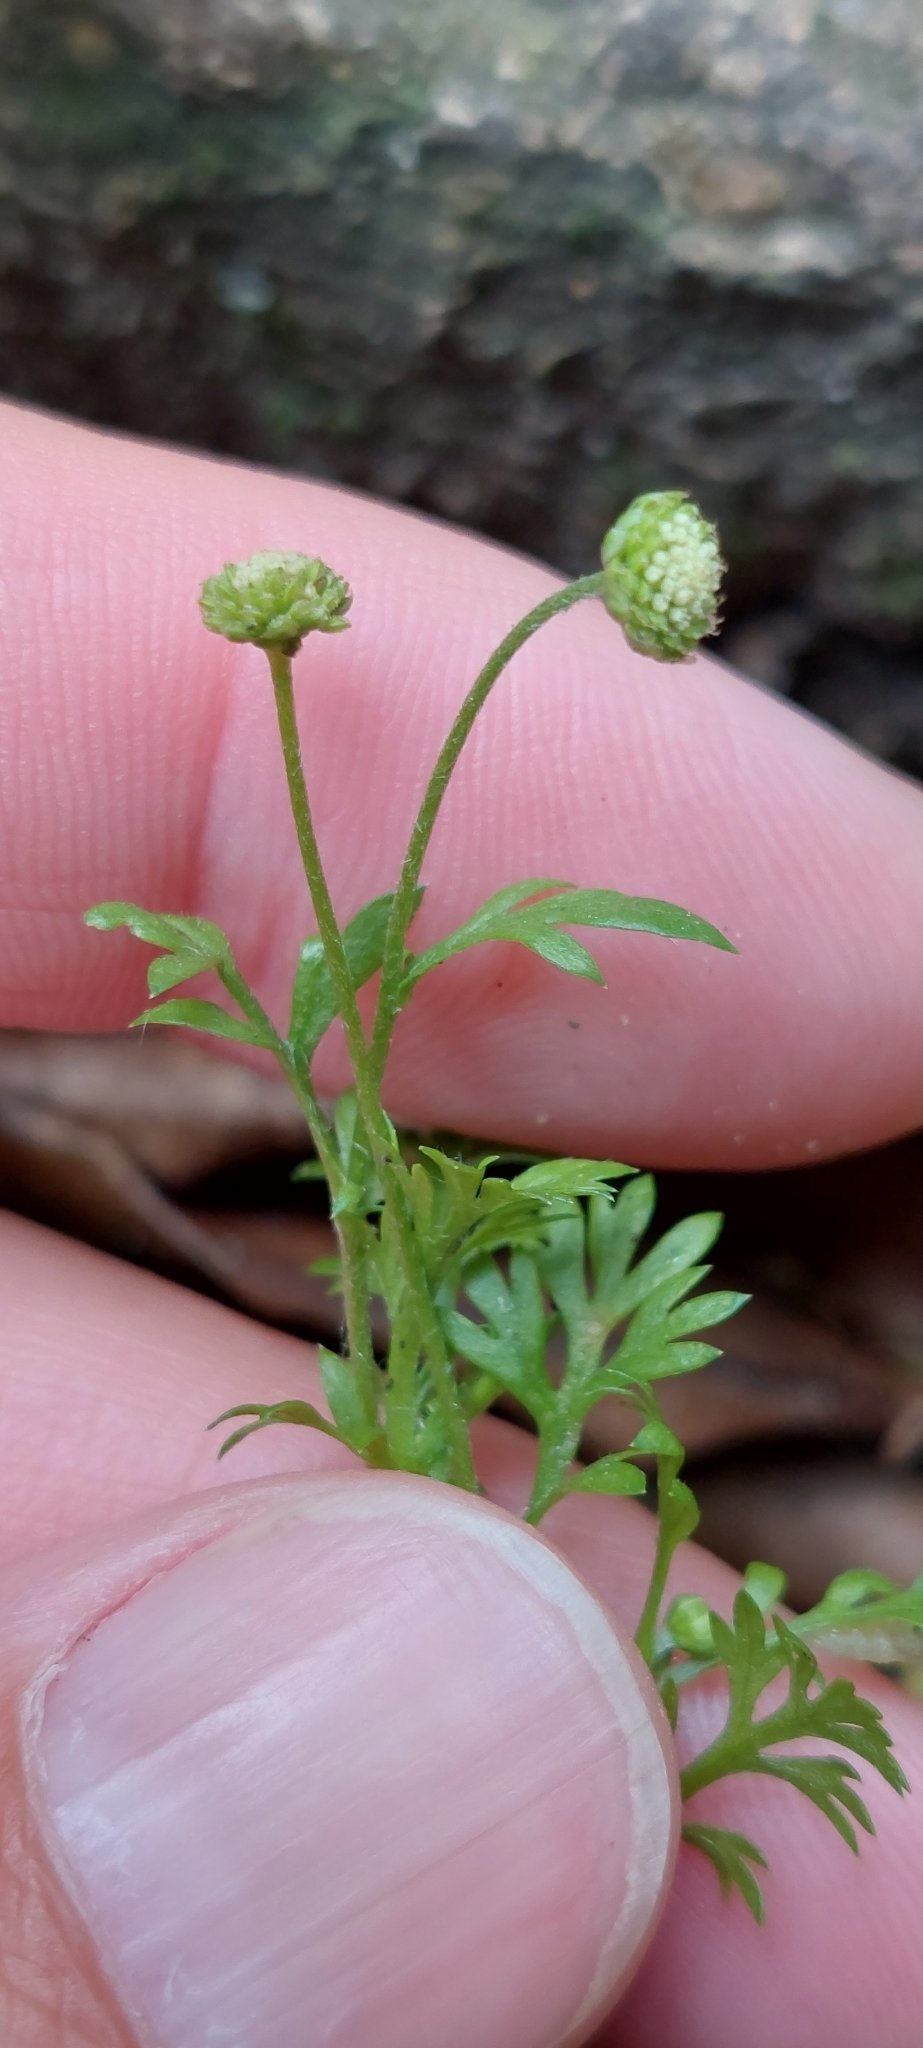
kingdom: Plantae
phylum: Tracheophyta
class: Magnoliopsida
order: Asterales
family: Asteraceae
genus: Cotula
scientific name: Cotula australis
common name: Australian waterbuttons
